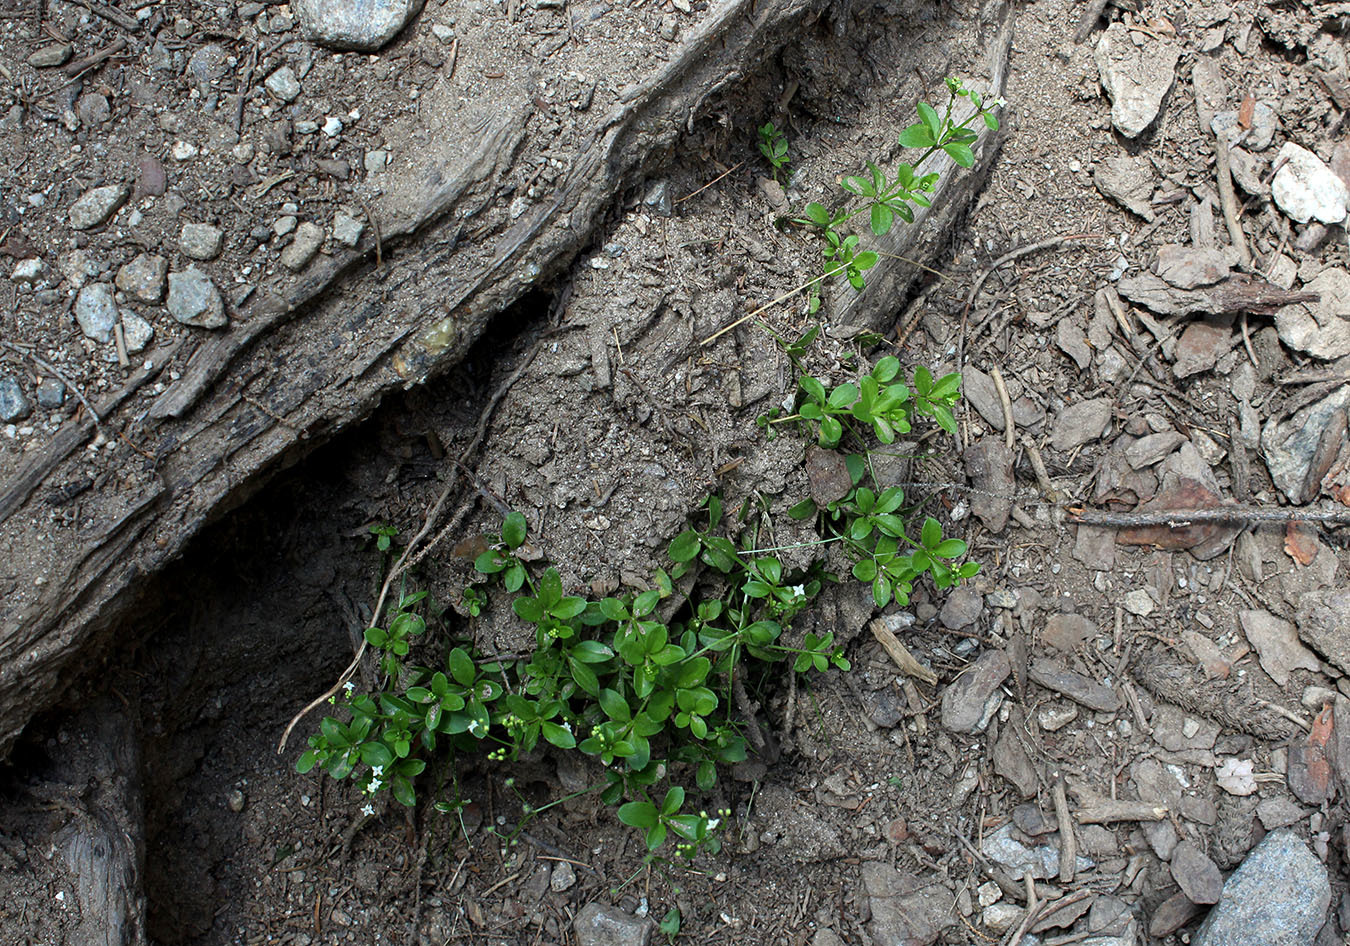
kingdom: Plantae
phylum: Tracheophyta
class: Magnoliopsida
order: Gentianales
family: Rubiaceae
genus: Galium
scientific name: Galium rotundifolium
